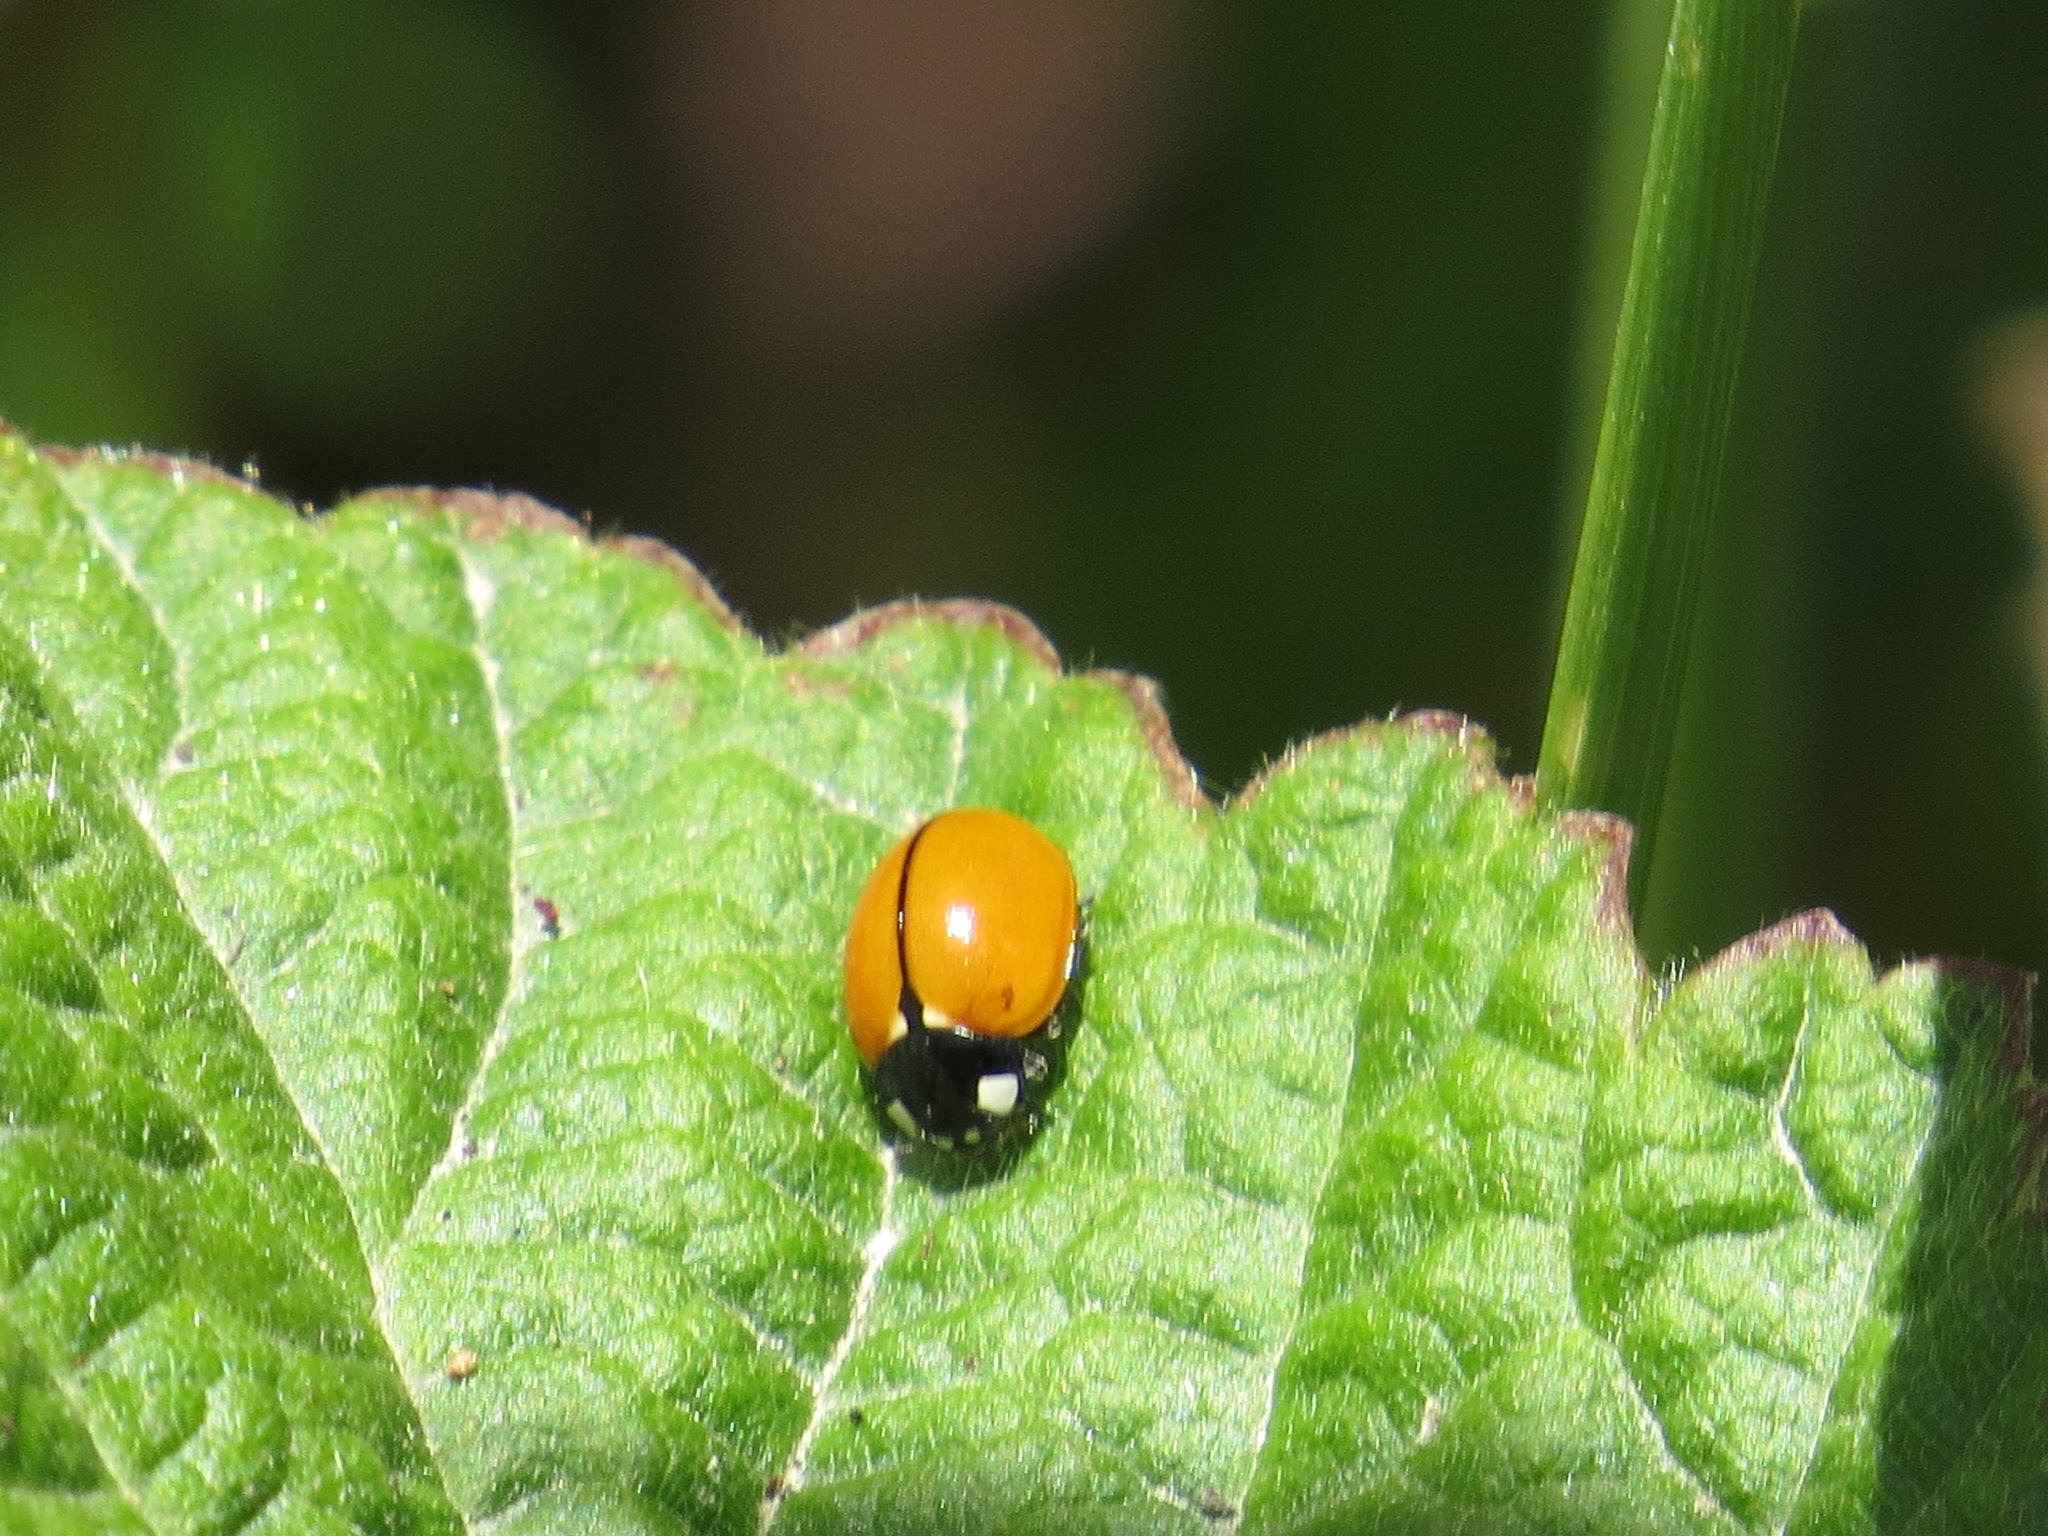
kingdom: Animalia
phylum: Arthropoda
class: Insecta
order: Coleoptera
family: Coccinellidae
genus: Coccinella
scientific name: Coccinella californica
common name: Lady beetle
